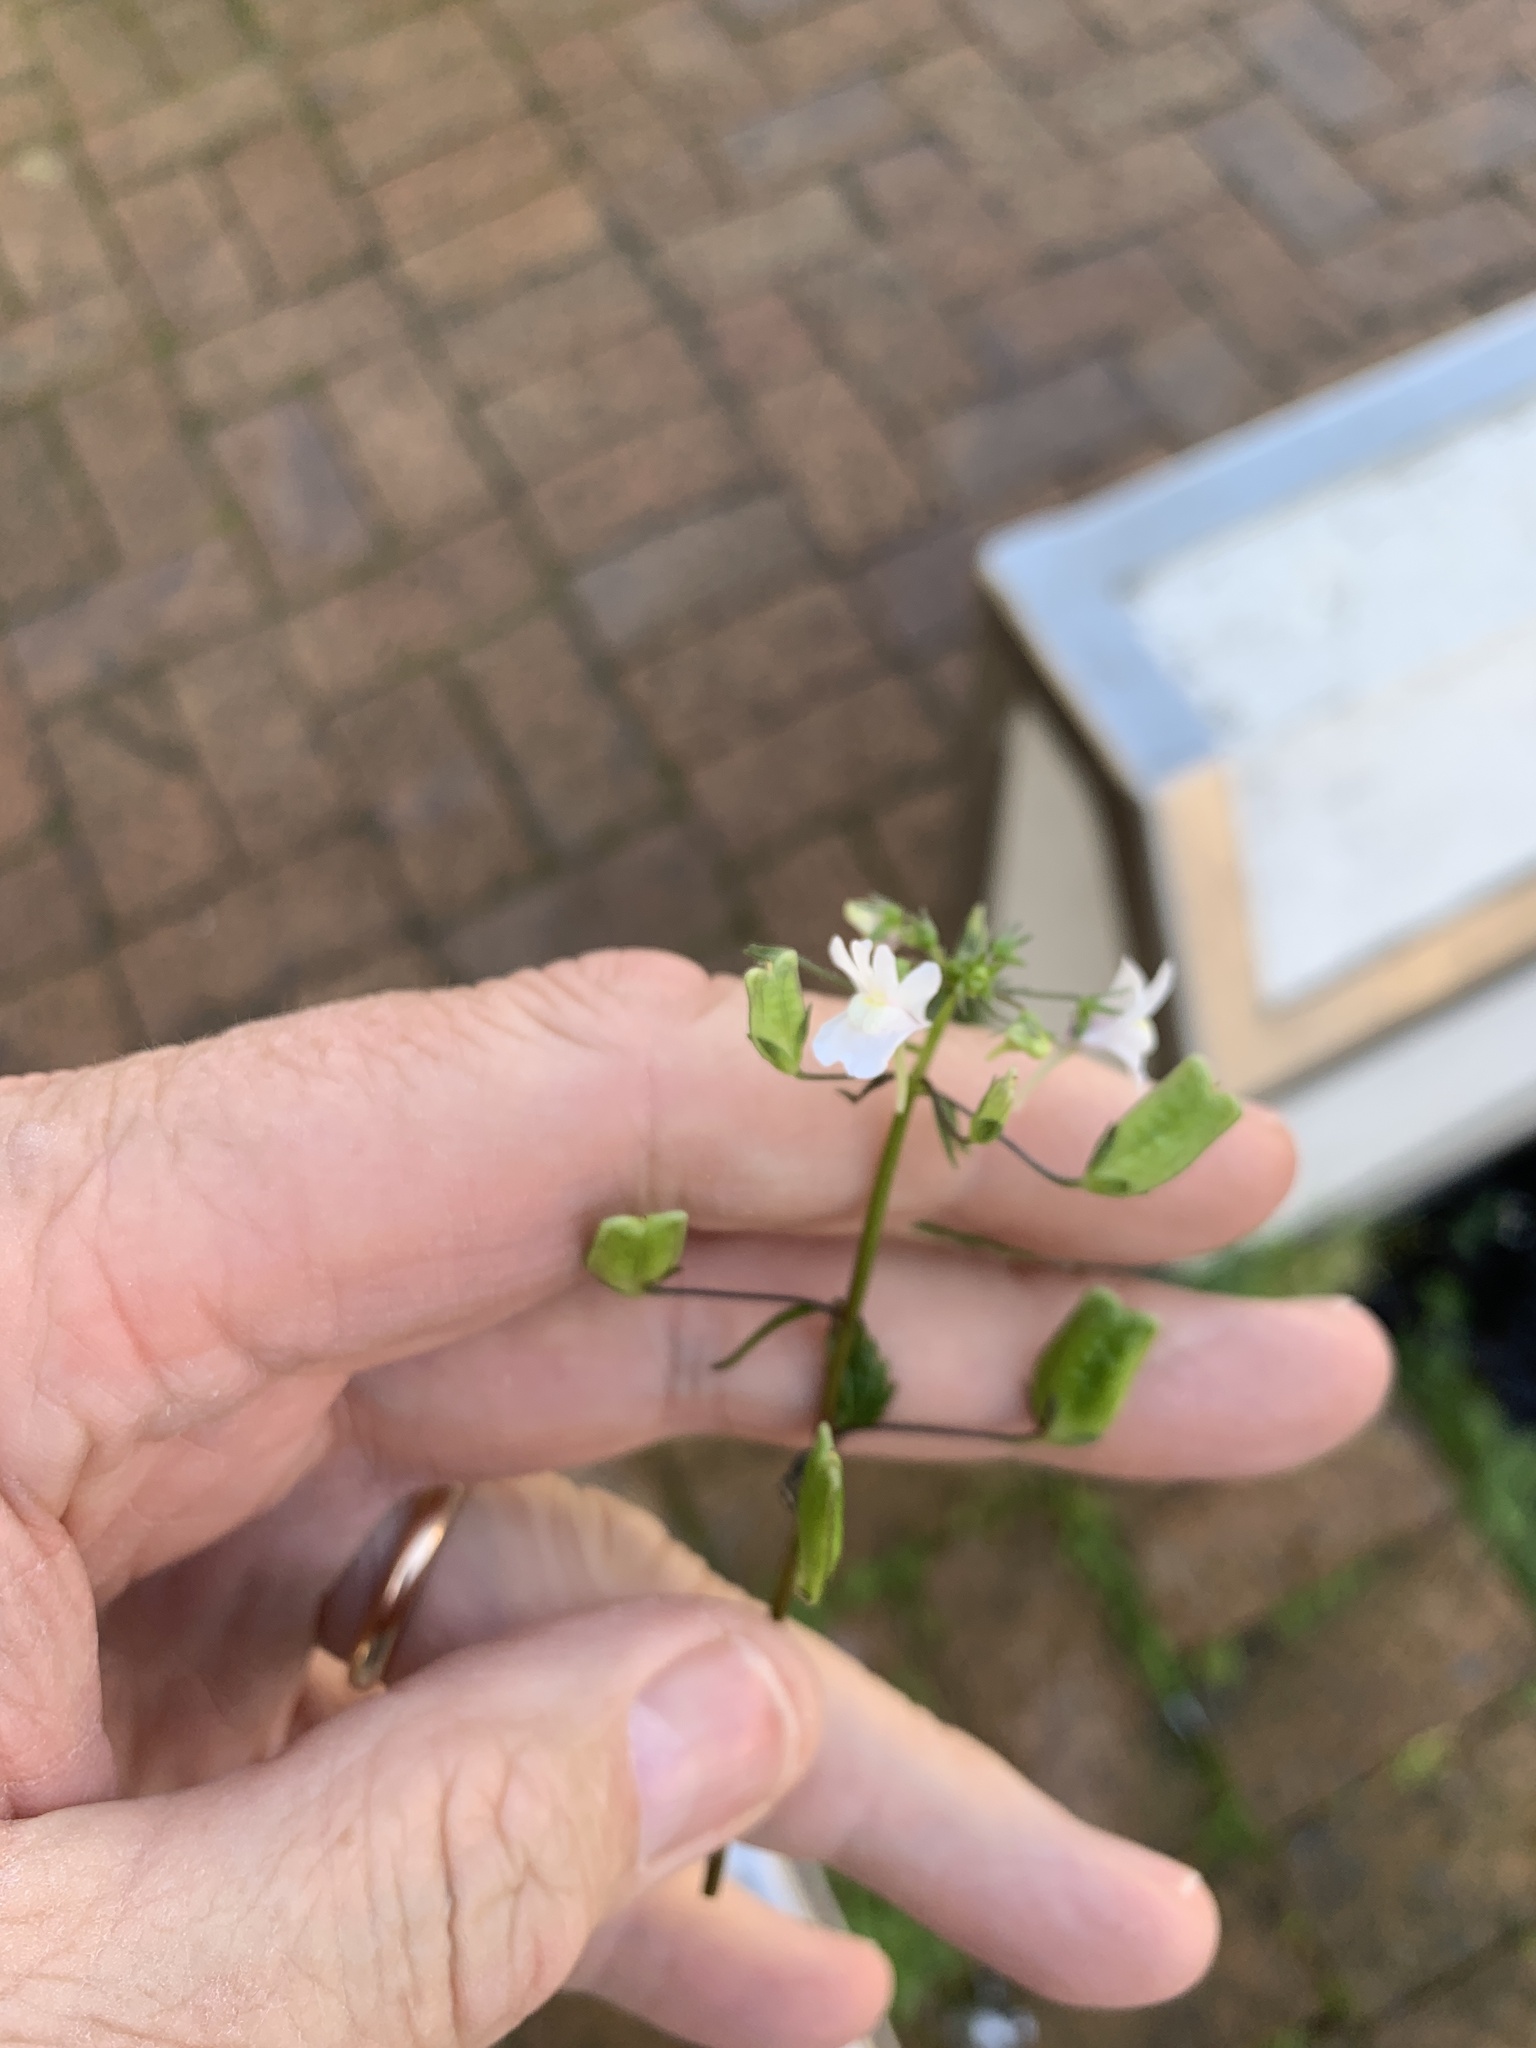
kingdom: Plantae
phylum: Tracheophyta
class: Magnoliopsida
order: Lamiales
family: Scrophulariaceae
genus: Nemesia
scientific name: Nemesia floribunda
